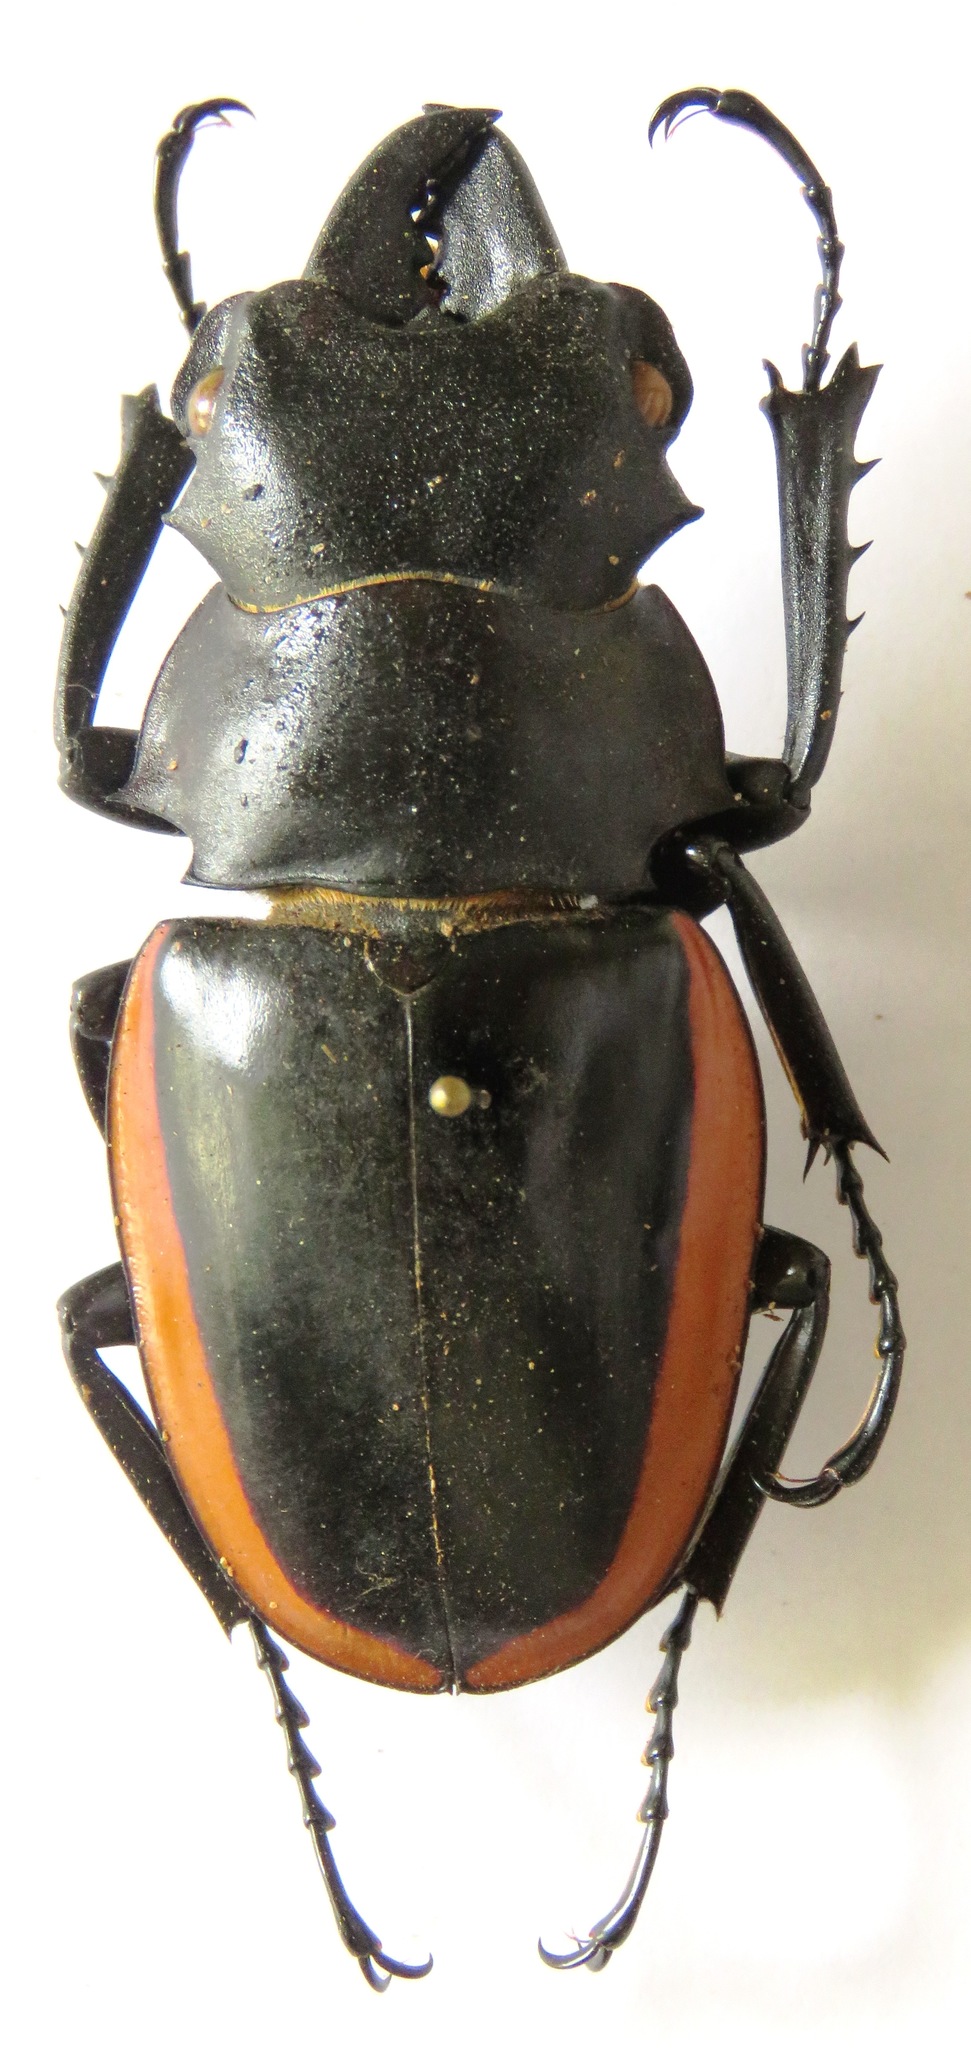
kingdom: Animalia
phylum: Arthropoda
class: Insecta
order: Coleoptera
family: Lucanidae
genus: Odontolabis
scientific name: Odontolabis cuvera
